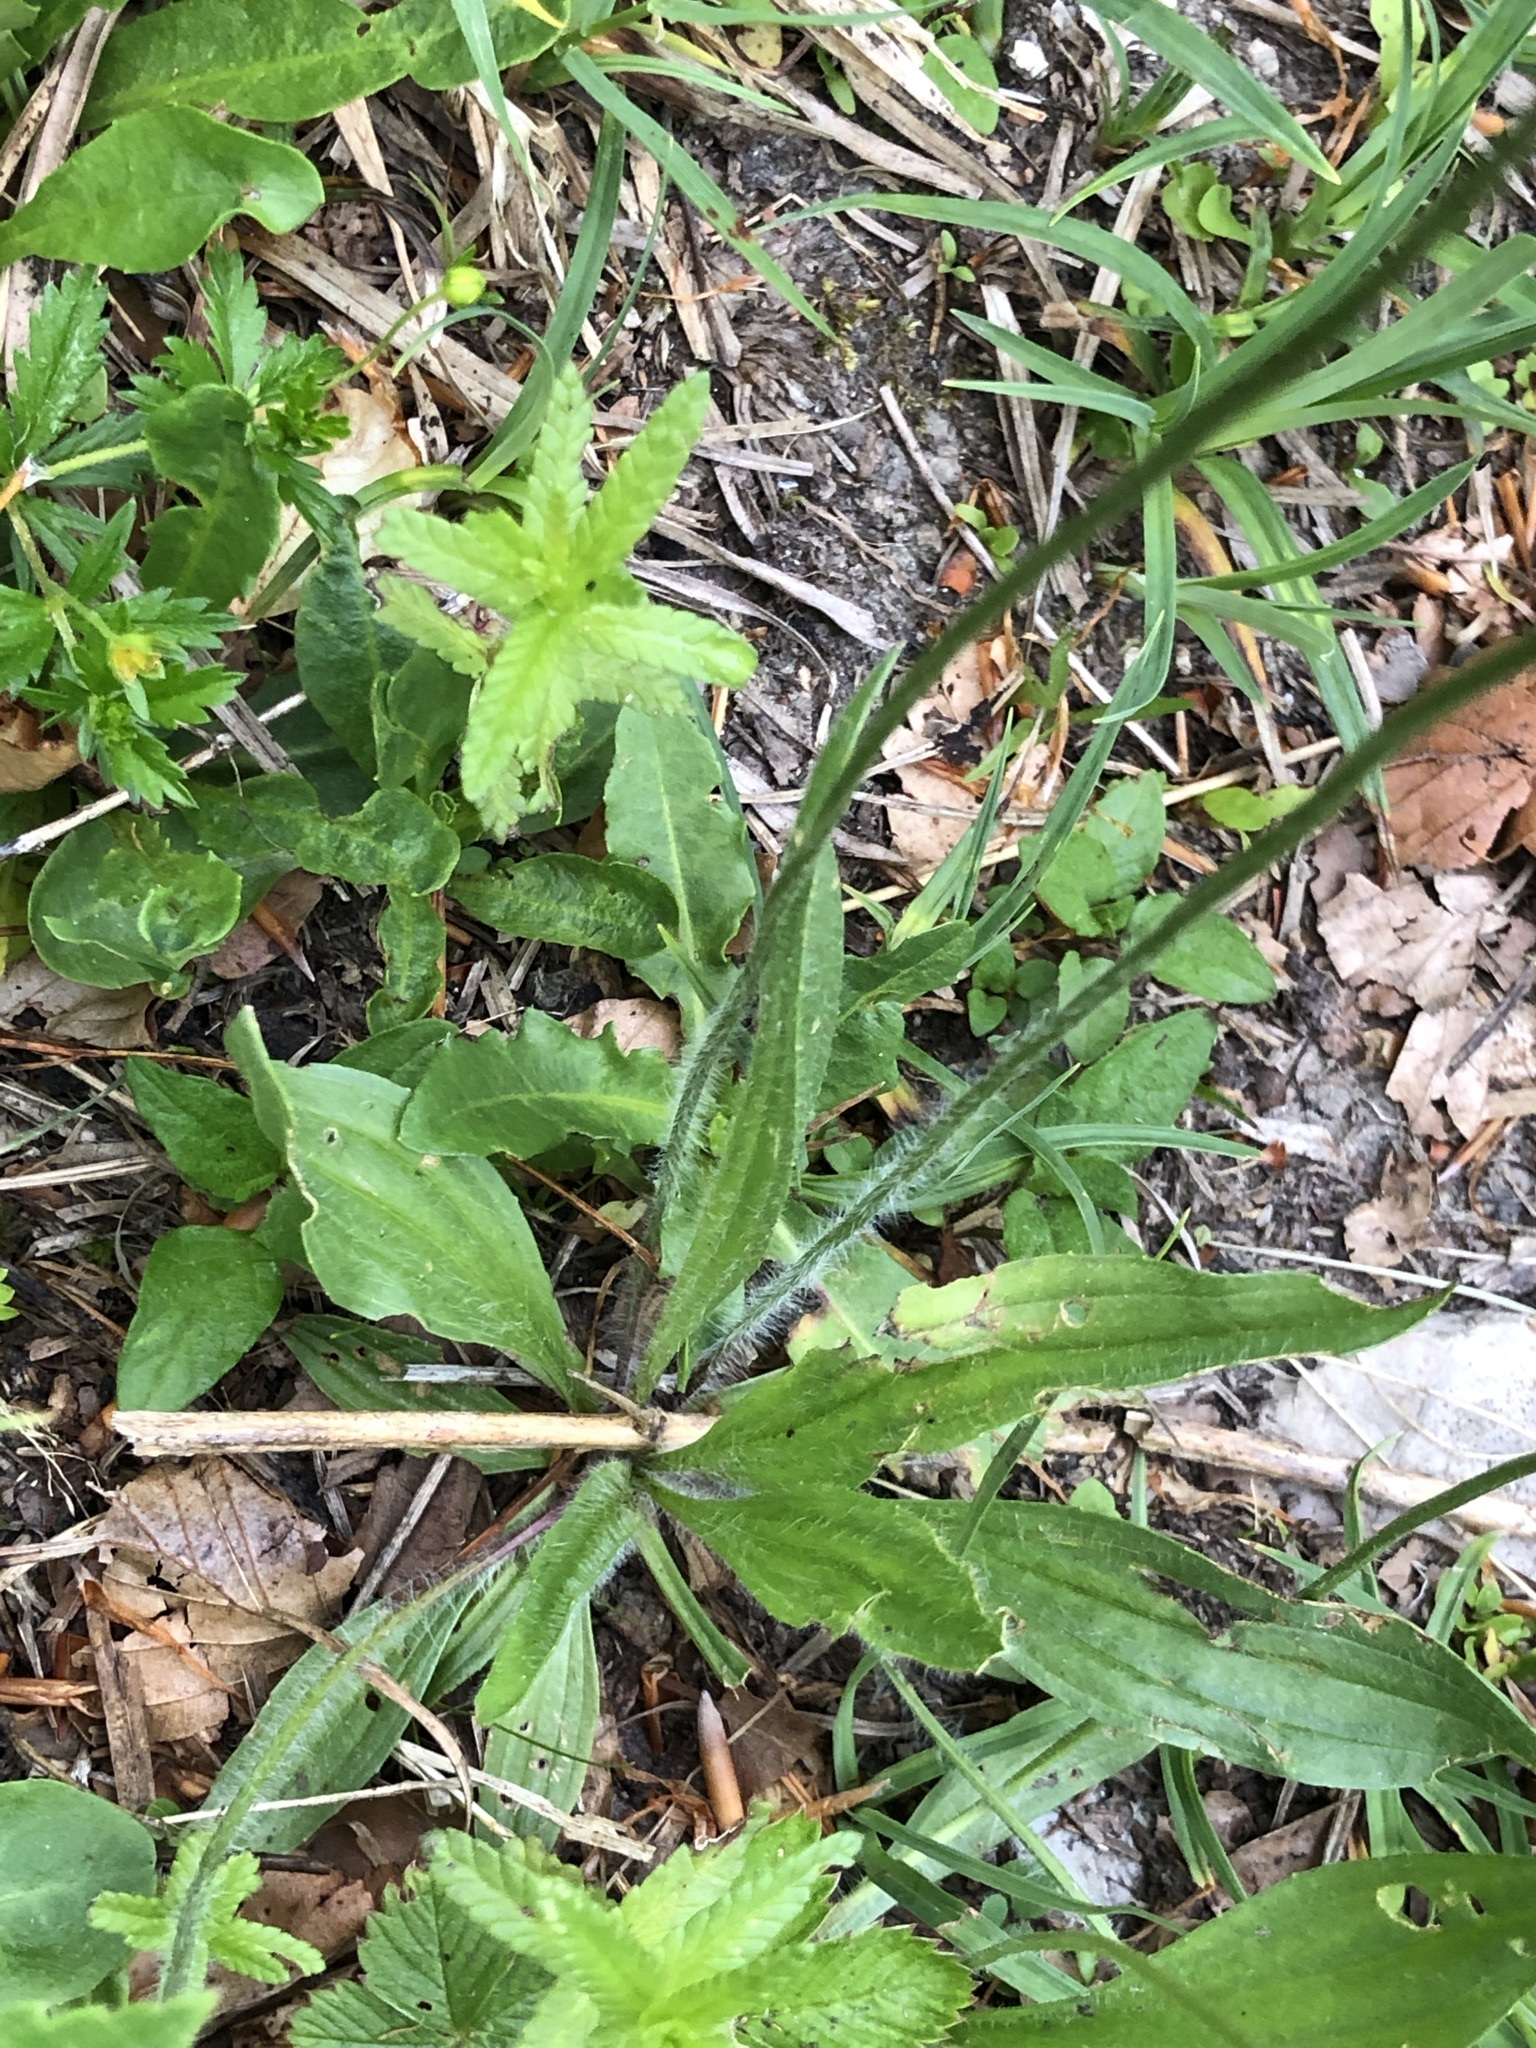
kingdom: Plantae
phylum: Tracheophyta
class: Magnoliopsida
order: Lamiales
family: Plantaginaceae
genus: Plantago
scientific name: Plantago lanceolata
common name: Ribwort plantain
